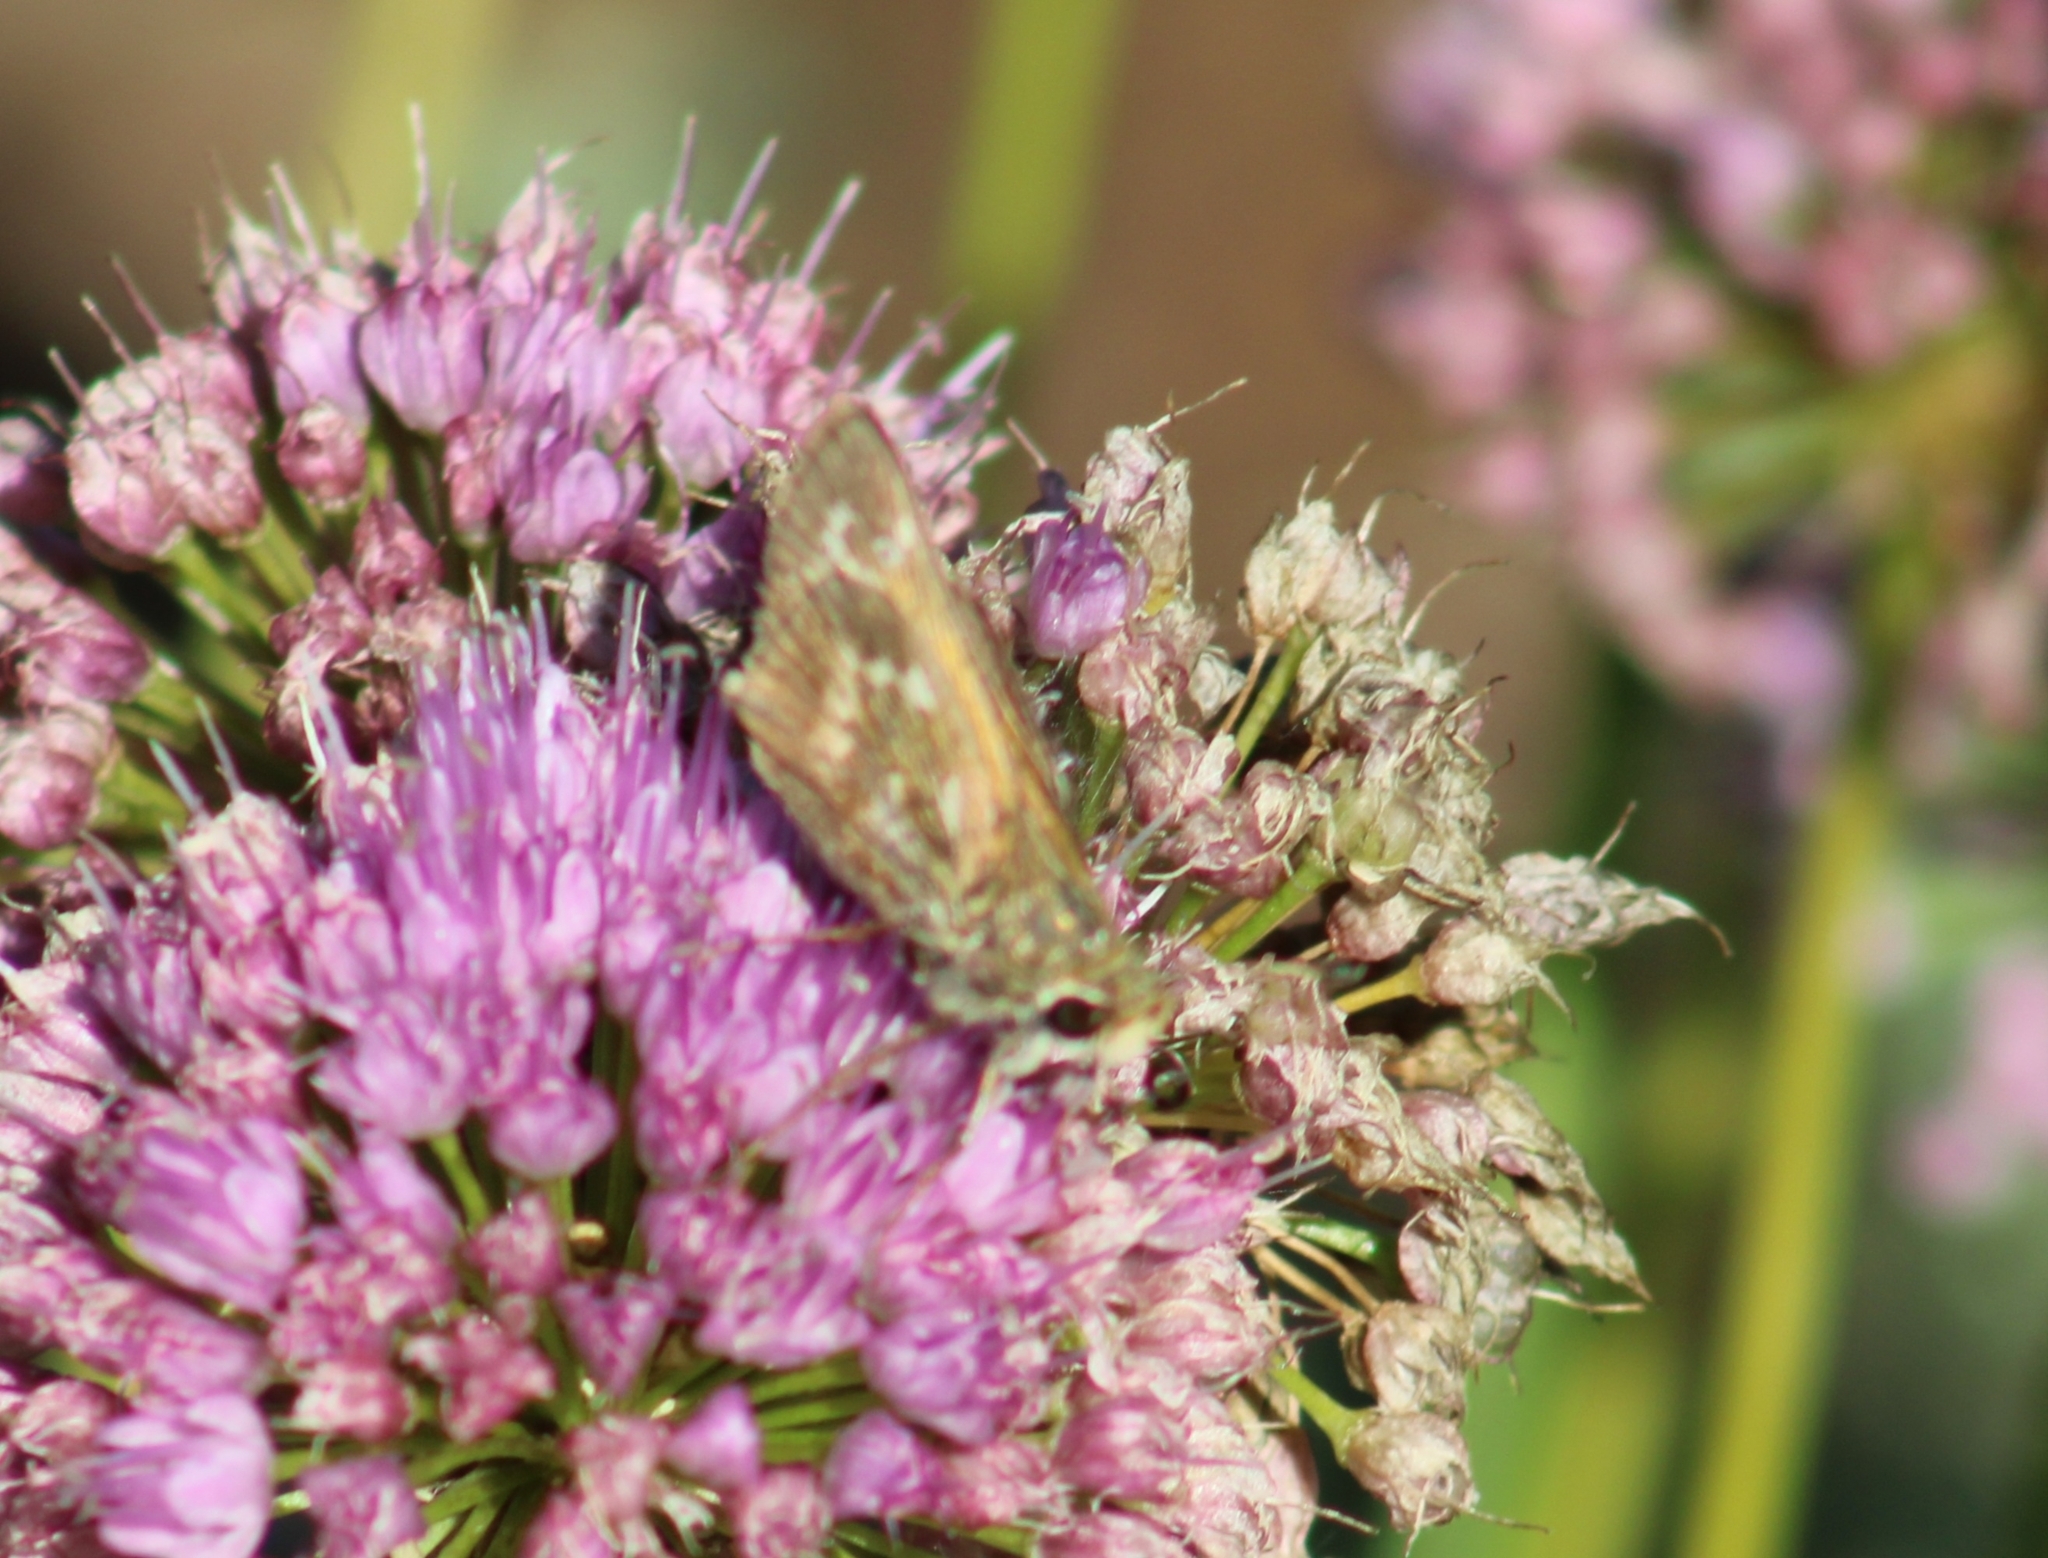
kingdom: Animalia
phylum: Arthropoda
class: Insecta
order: Lepidoptera
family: Hesperiidae
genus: Atalopedes
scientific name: Atalopedes
